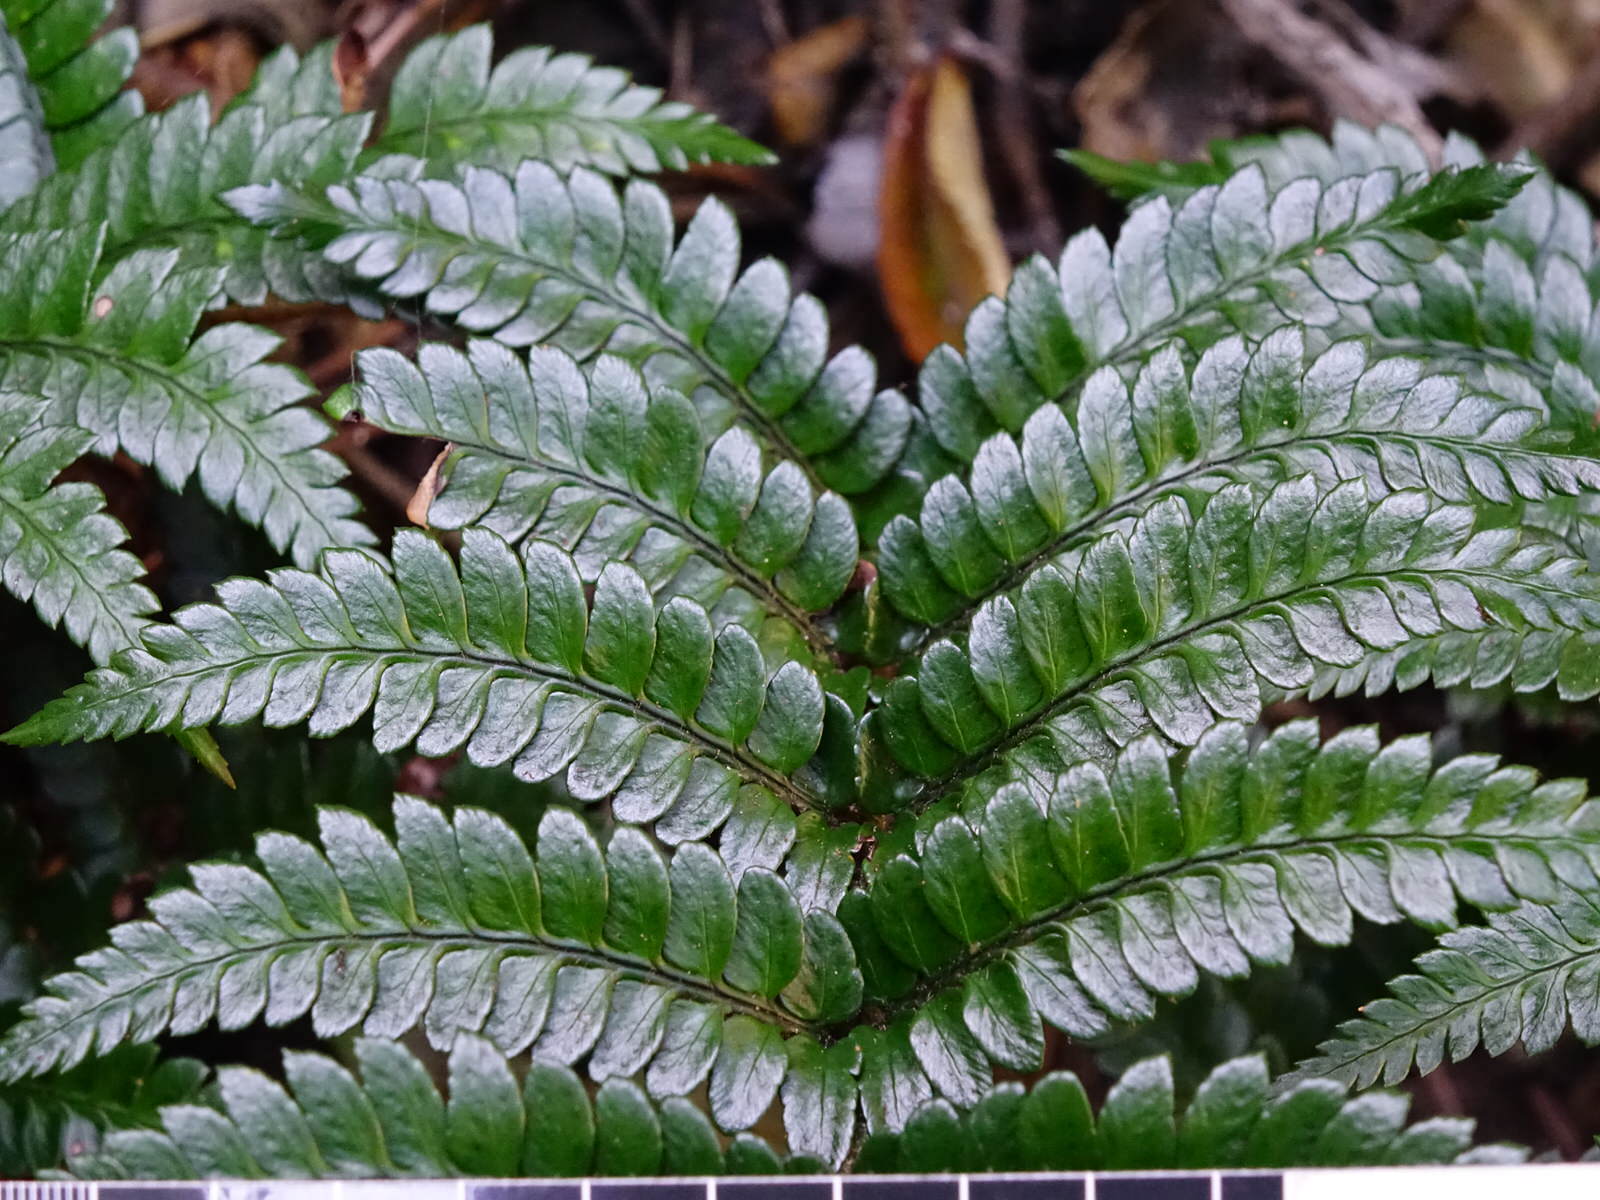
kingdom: Plantae
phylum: Tracheophyta
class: Polypodiopsida
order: Polypodiales
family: Dryopteridaceae
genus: Polystichum
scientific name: Polystichum wawranum
